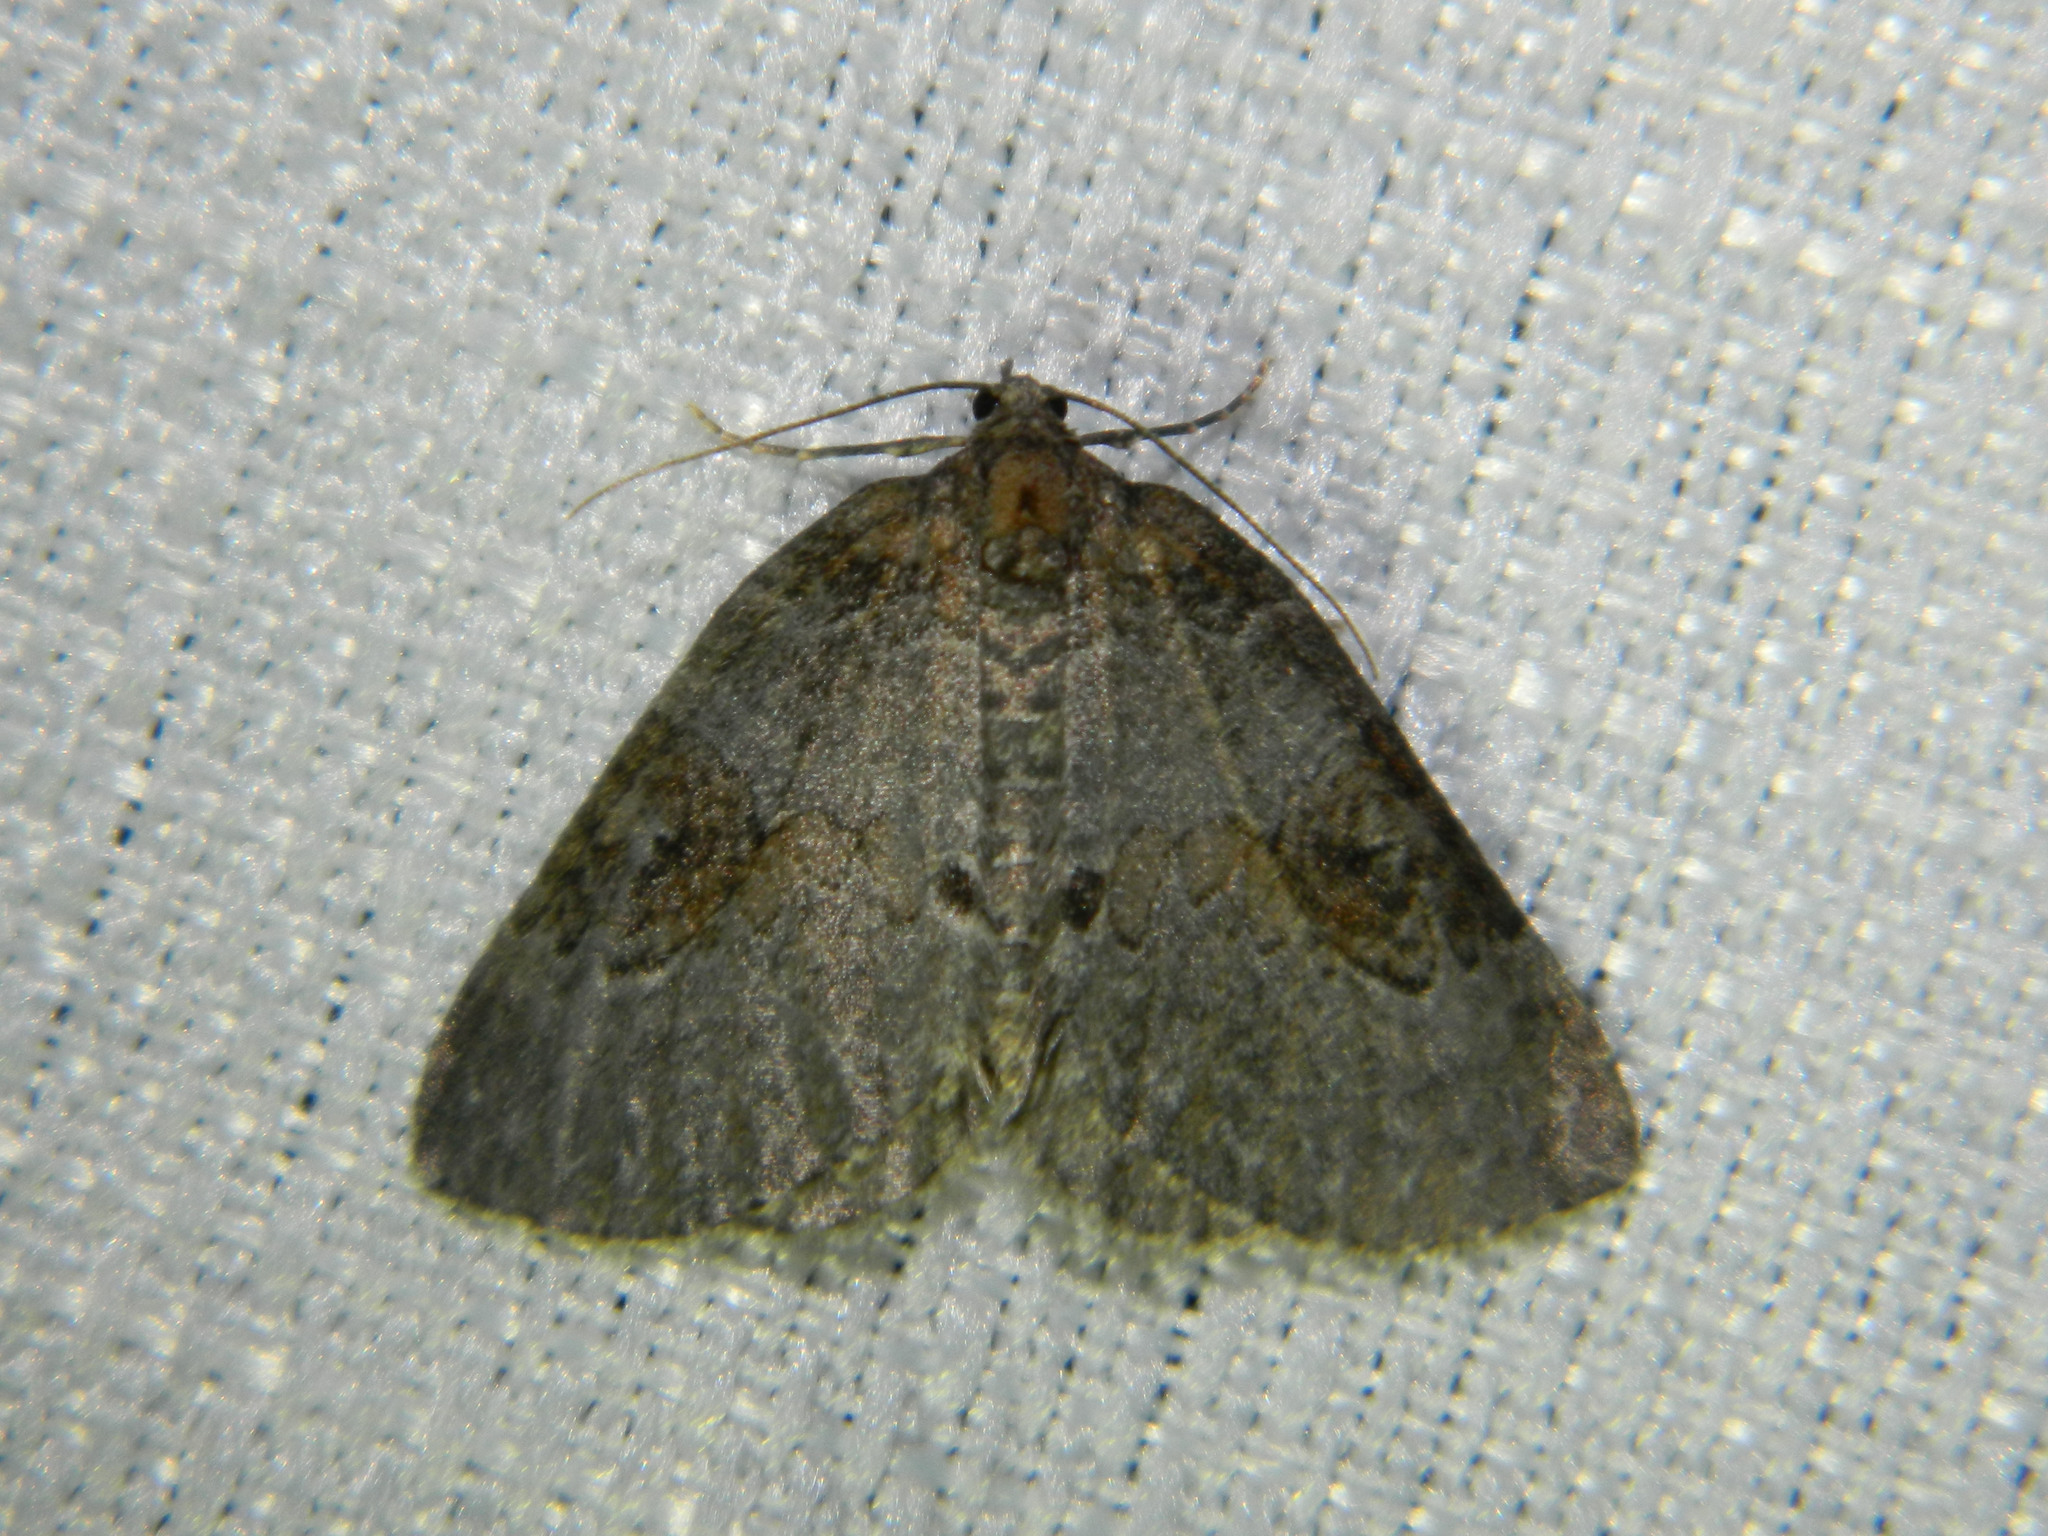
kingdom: Animalia
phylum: Arthropoda
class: Insecta
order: Lepidoptera
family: Geometridae
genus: Plemyria
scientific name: Plemyria georgii
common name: George's carpet moth
